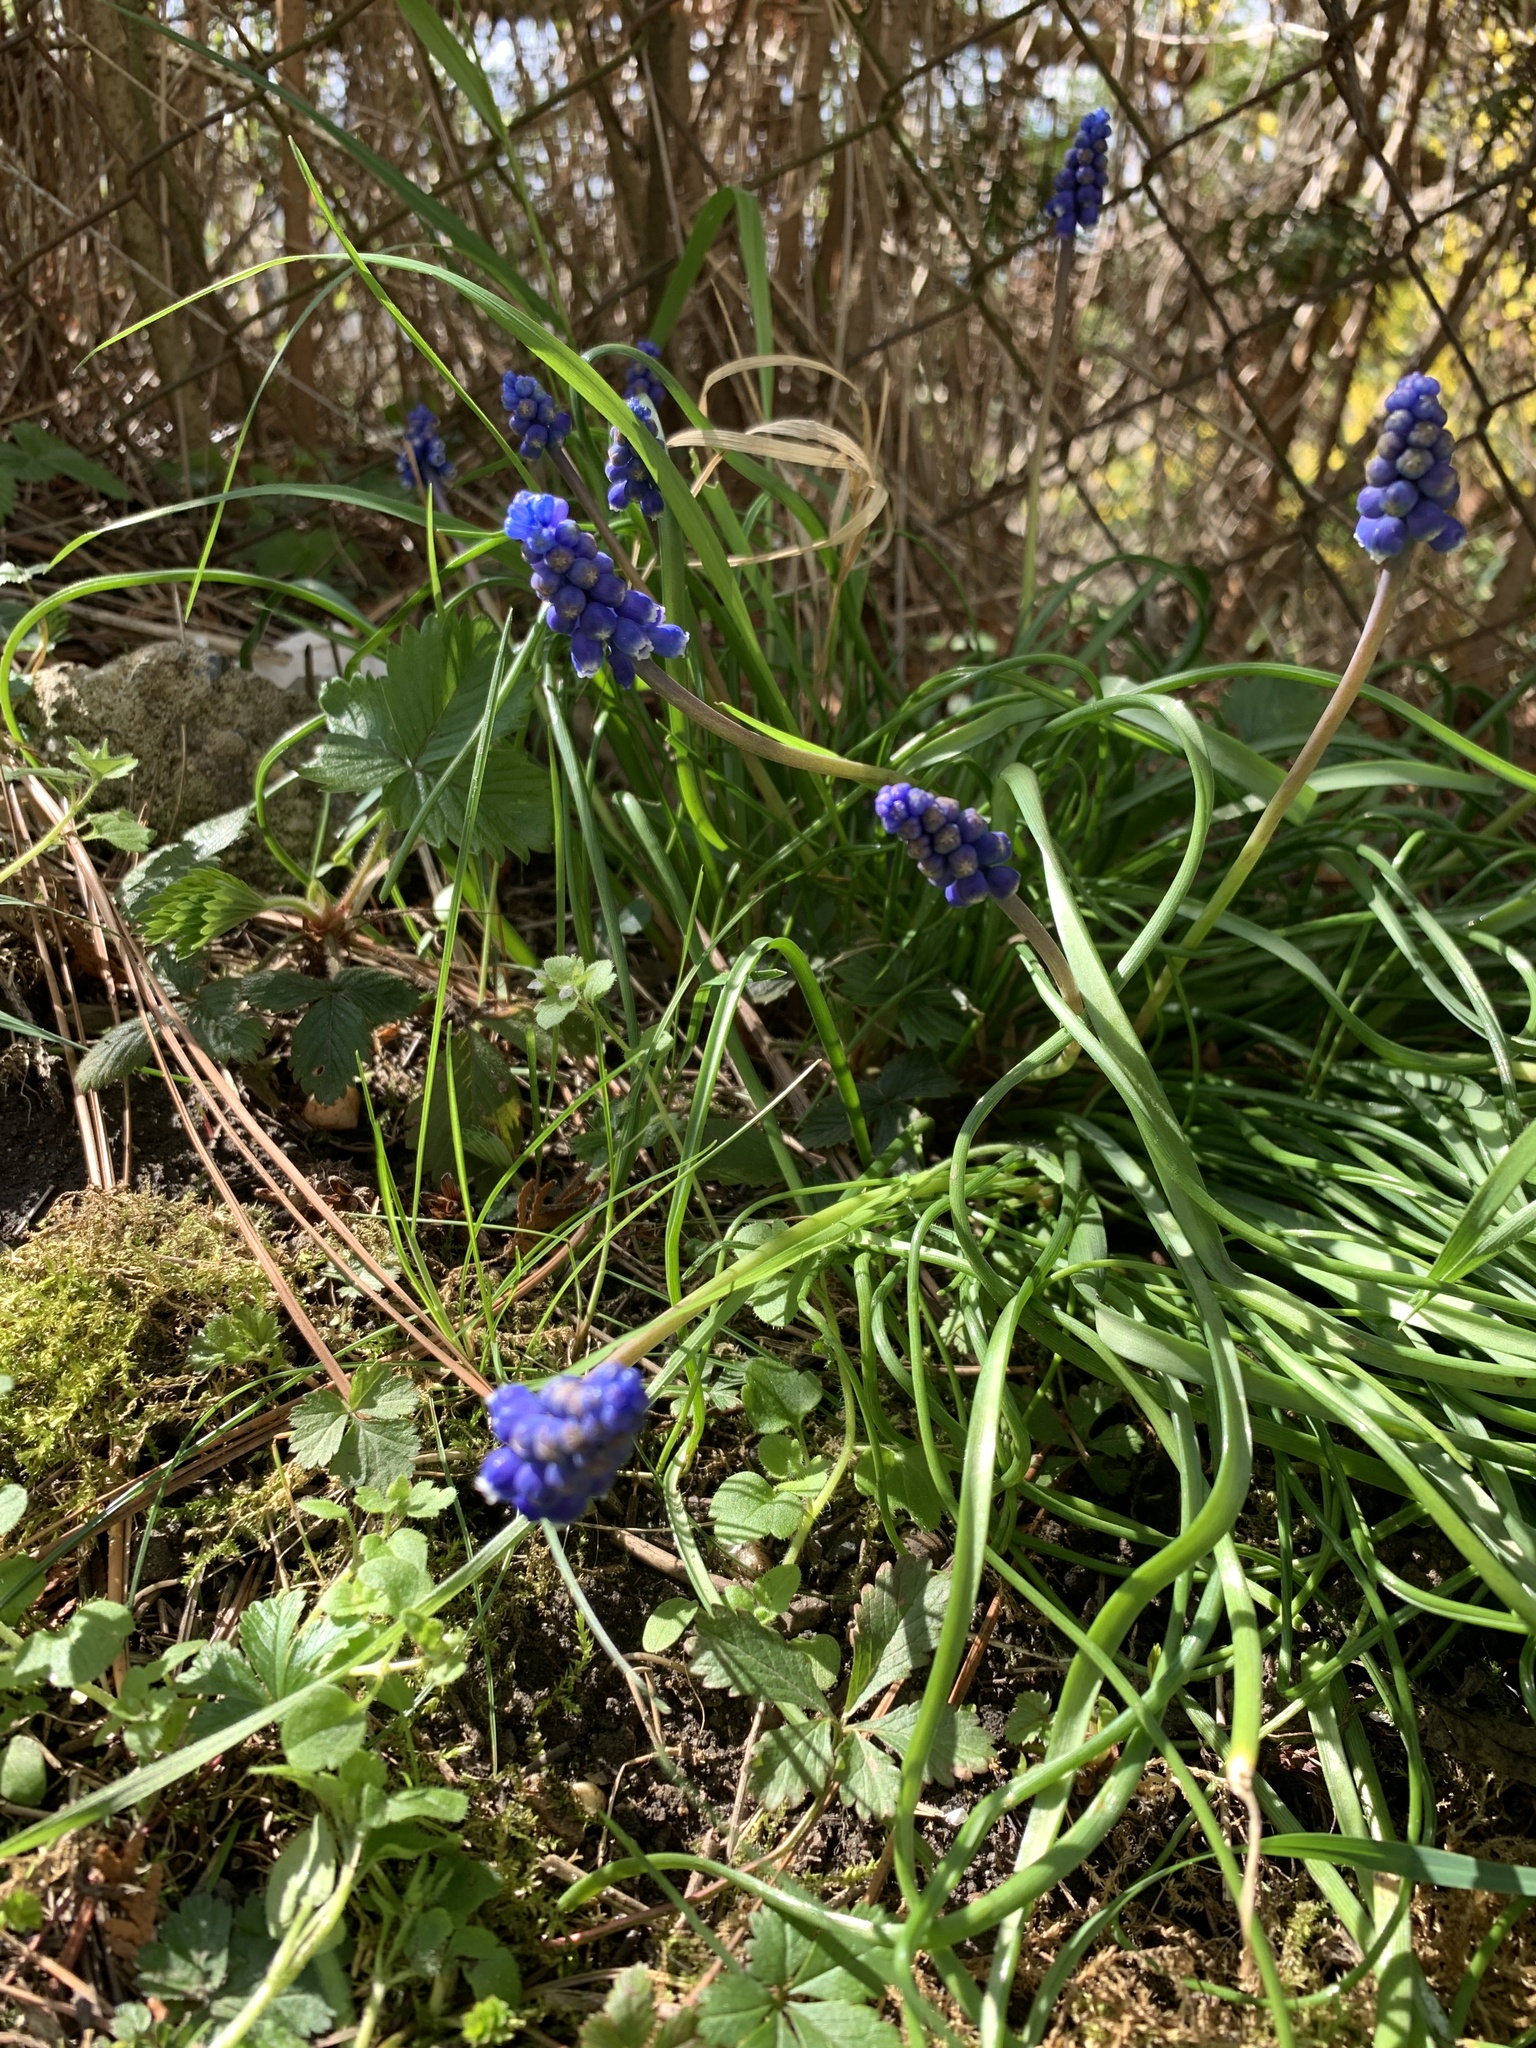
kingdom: Plantae
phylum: Tracheophyta
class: Liliopsida
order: Asparagales
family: Asparagaceae
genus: Muscari
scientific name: Muscari armeniacum
